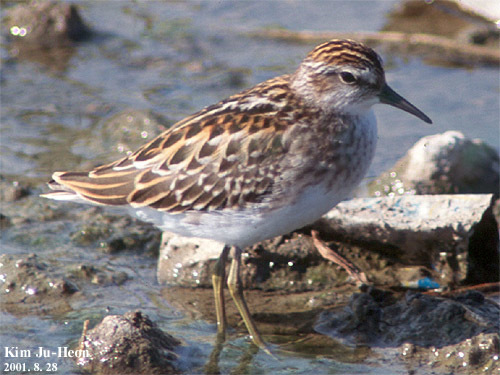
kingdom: Animalia
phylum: Chordata
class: Aves
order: Charadriiformes
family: Scolopacidae
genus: Calidris
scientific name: Calidris subminuta
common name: Long-toed stint
